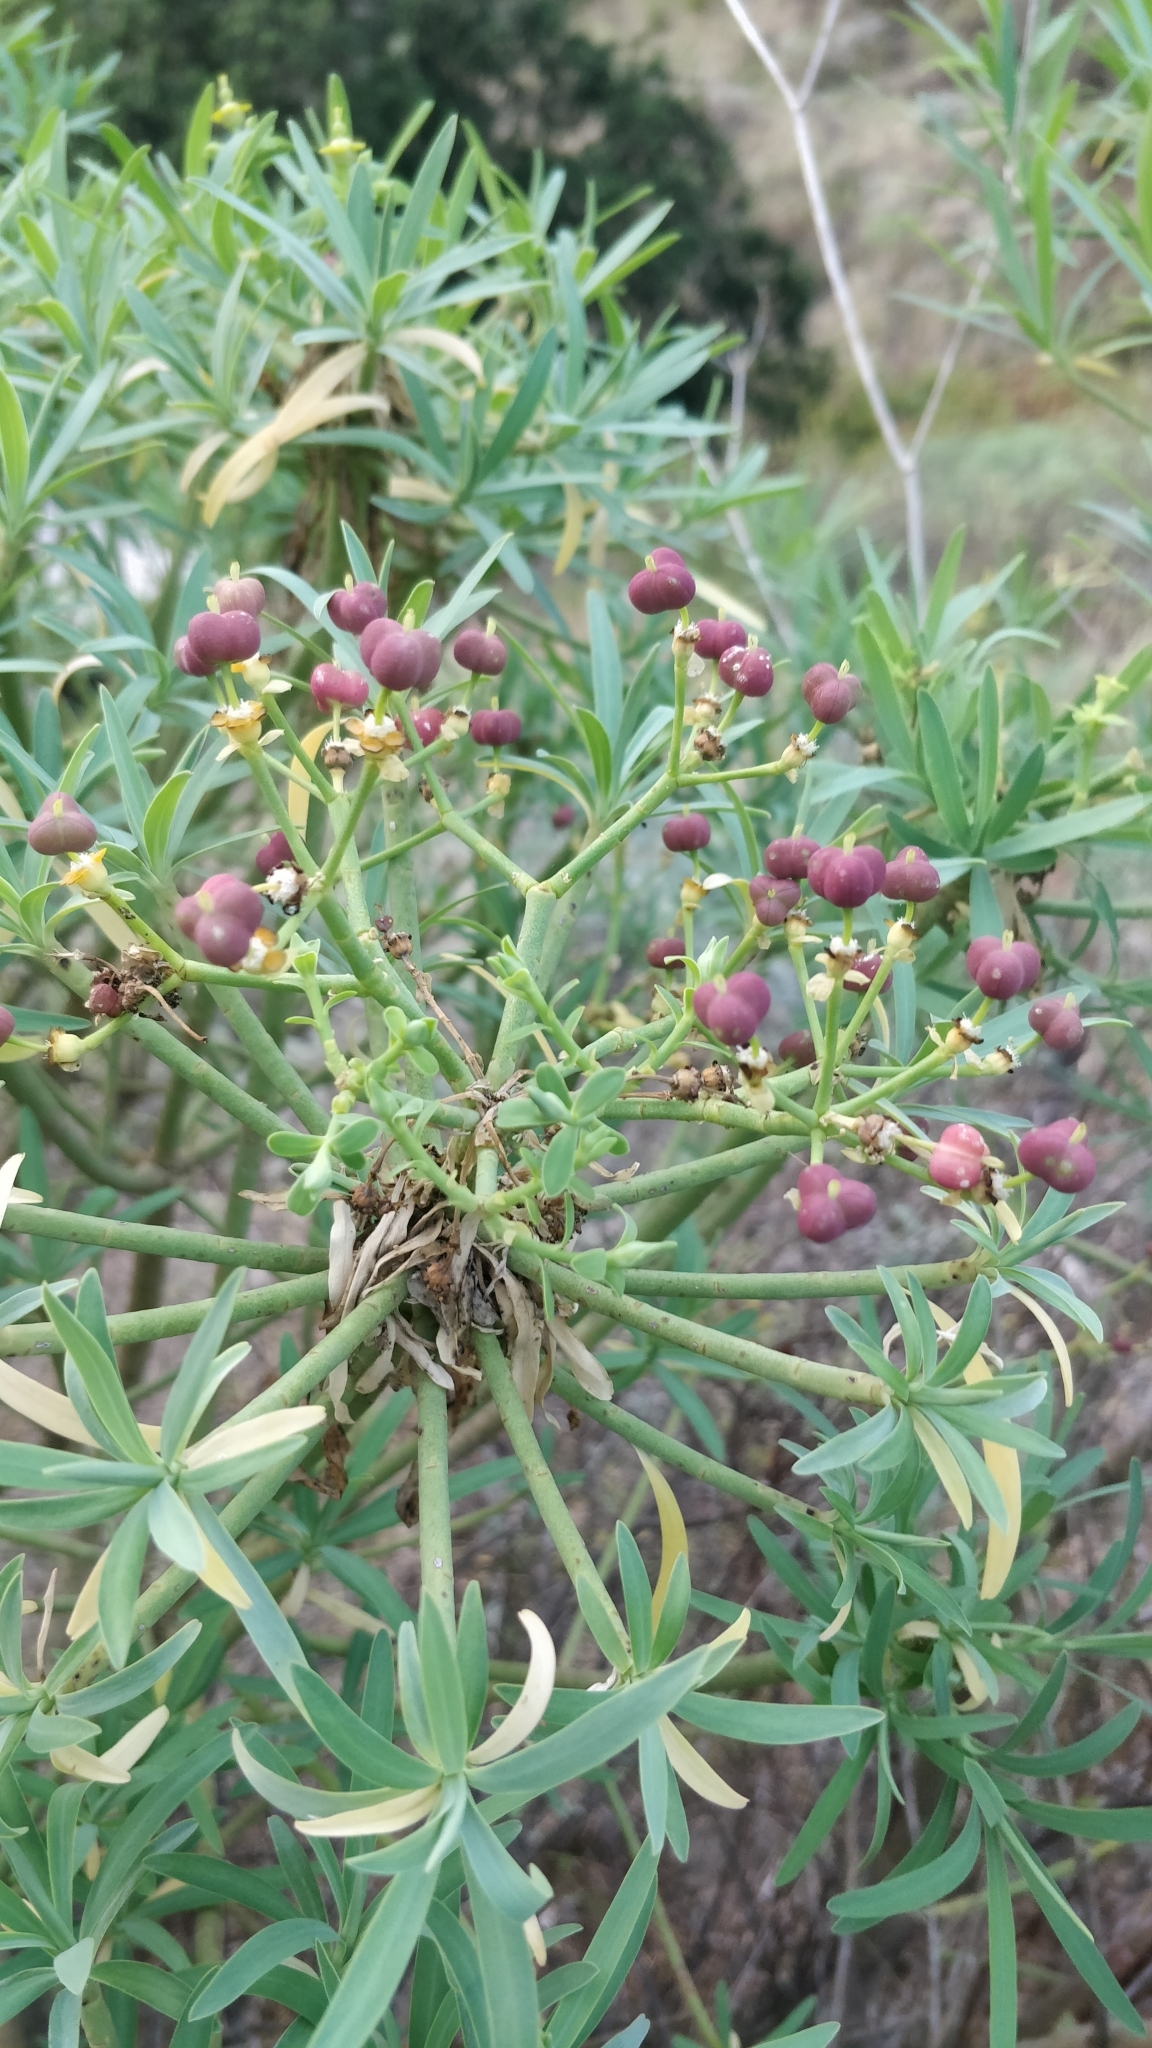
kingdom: Plantae
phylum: Tracheophyta
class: Magnoliopsida
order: Malpighiales
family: Euphorbiaceae
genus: Euphorbia
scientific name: Euphorbia lamarckii
